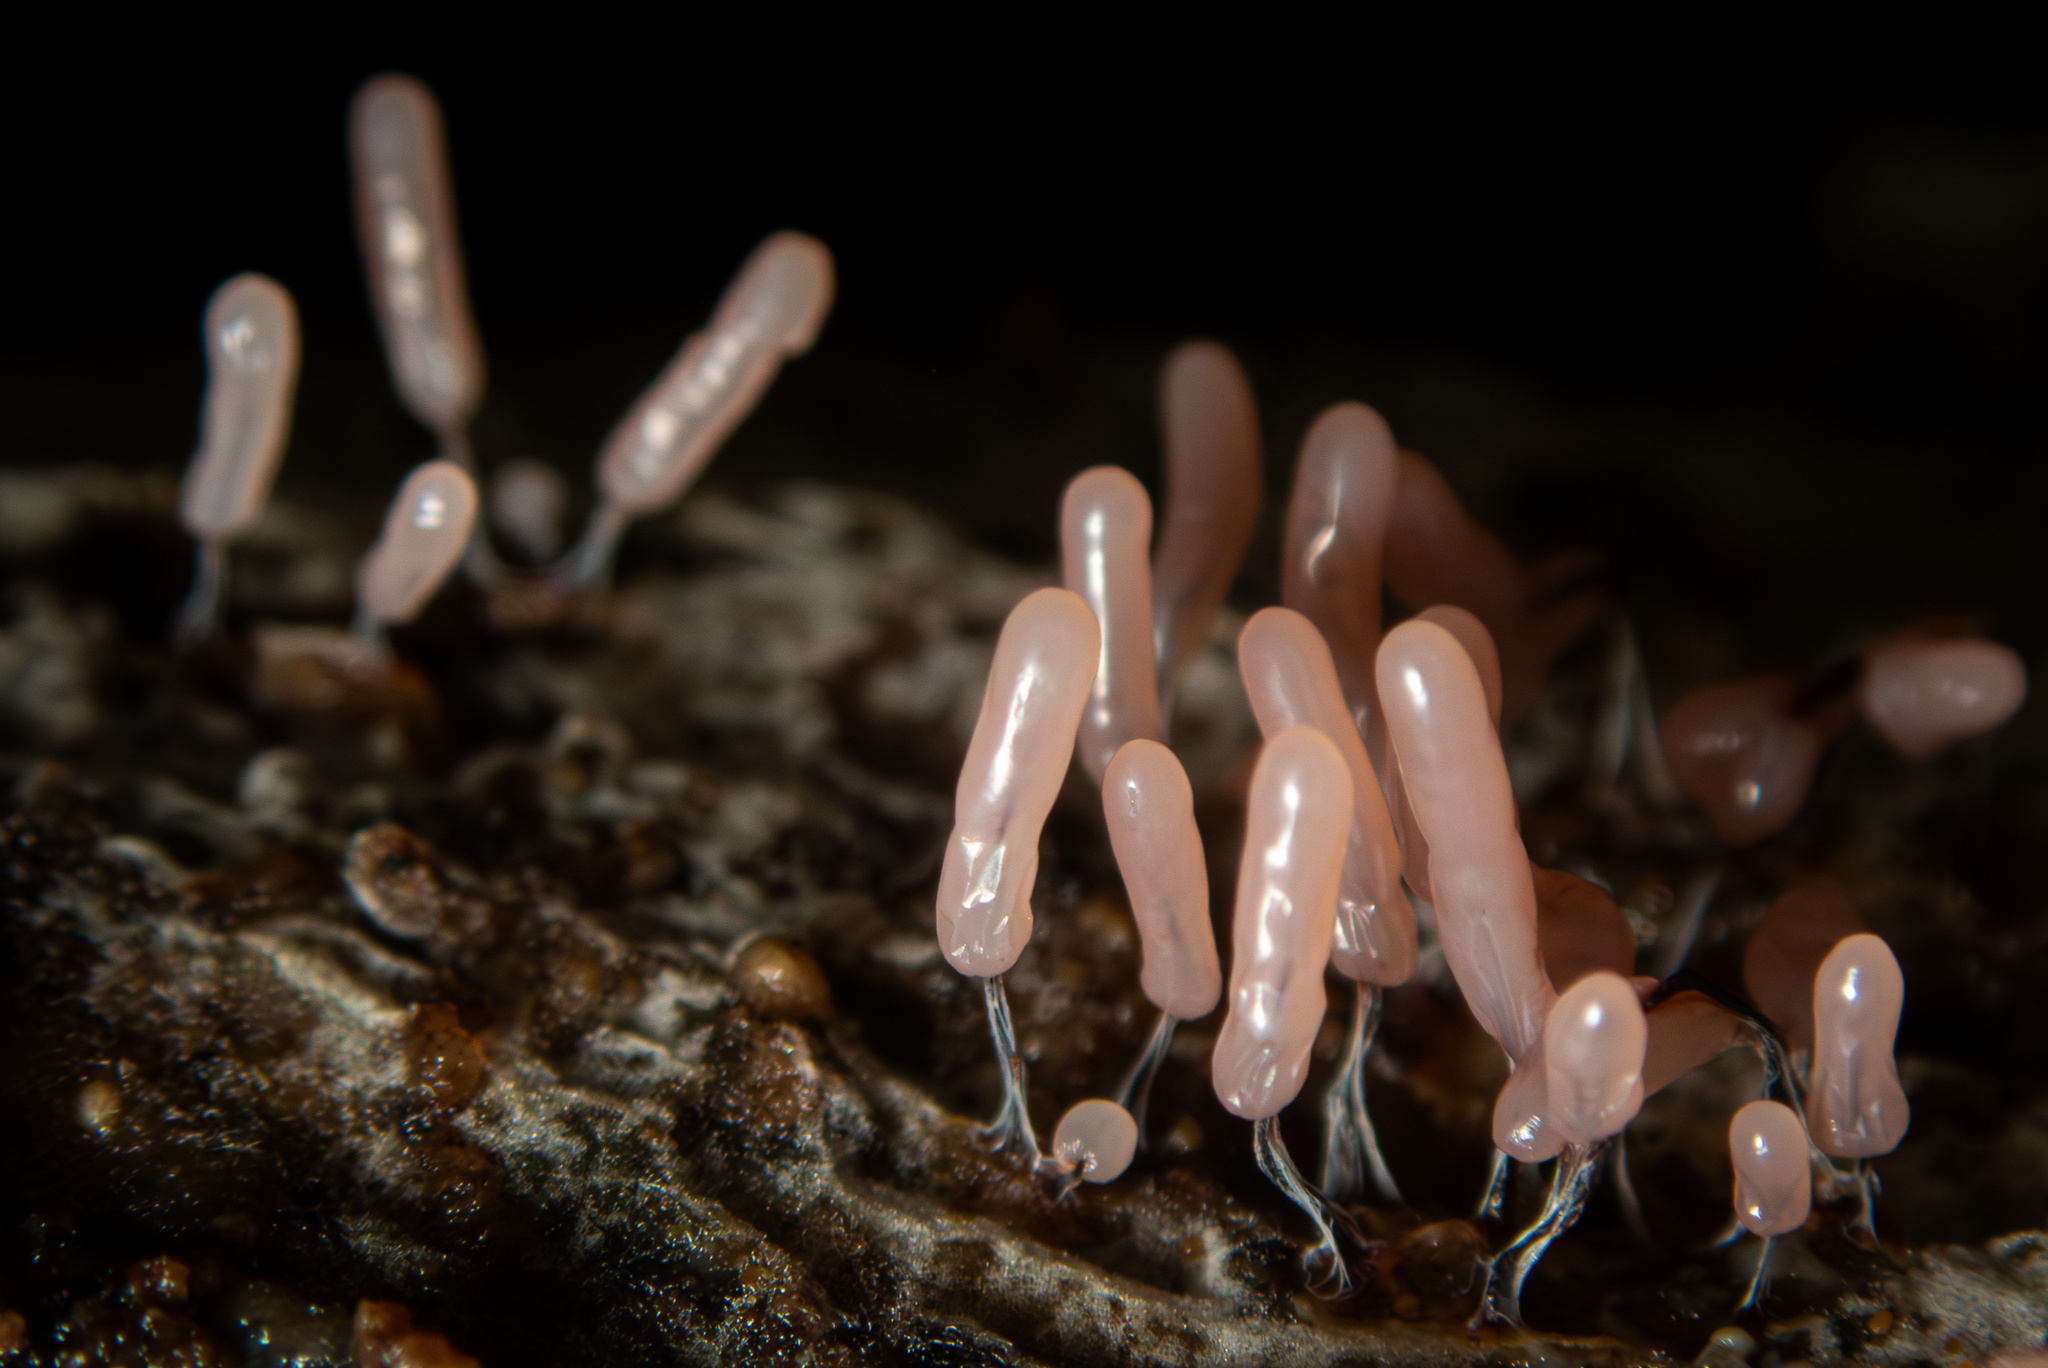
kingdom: Protozoa
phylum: Mycetozoa
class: Myxomycetes
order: Stemonitidales
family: Stemonitidaceae
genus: Stemonitopsis
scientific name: Stemonitopsis typhina
